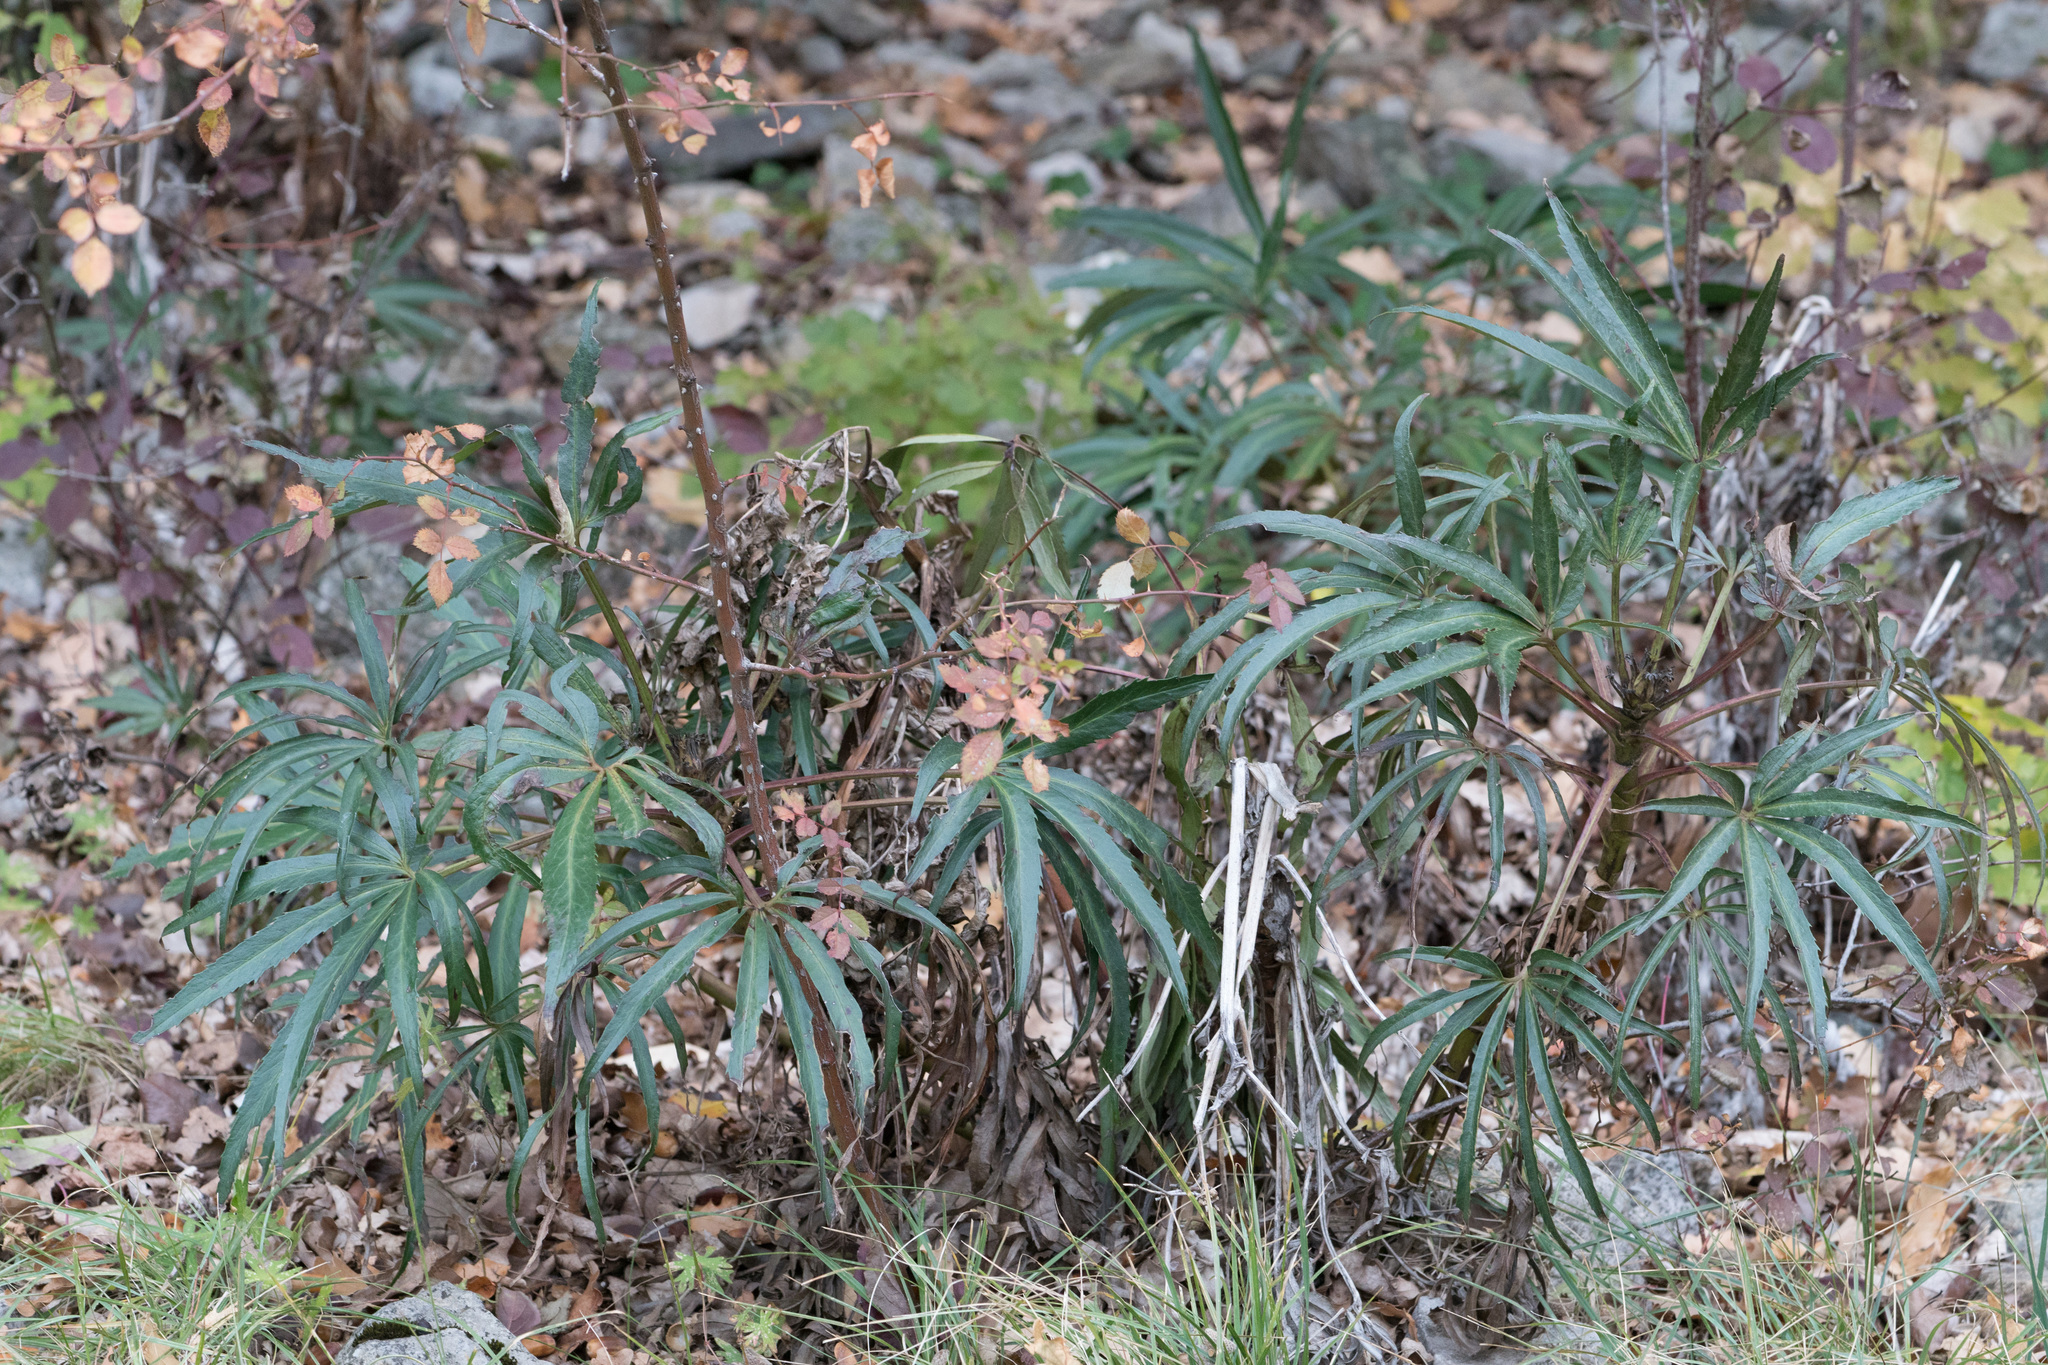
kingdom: Plantae
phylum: Tracheophyta
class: Magnoliopsida
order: Ranunculales
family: Ranunculaceae
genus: Helleborus
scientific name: Helleborus foetidus
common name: Stinking hellebore
